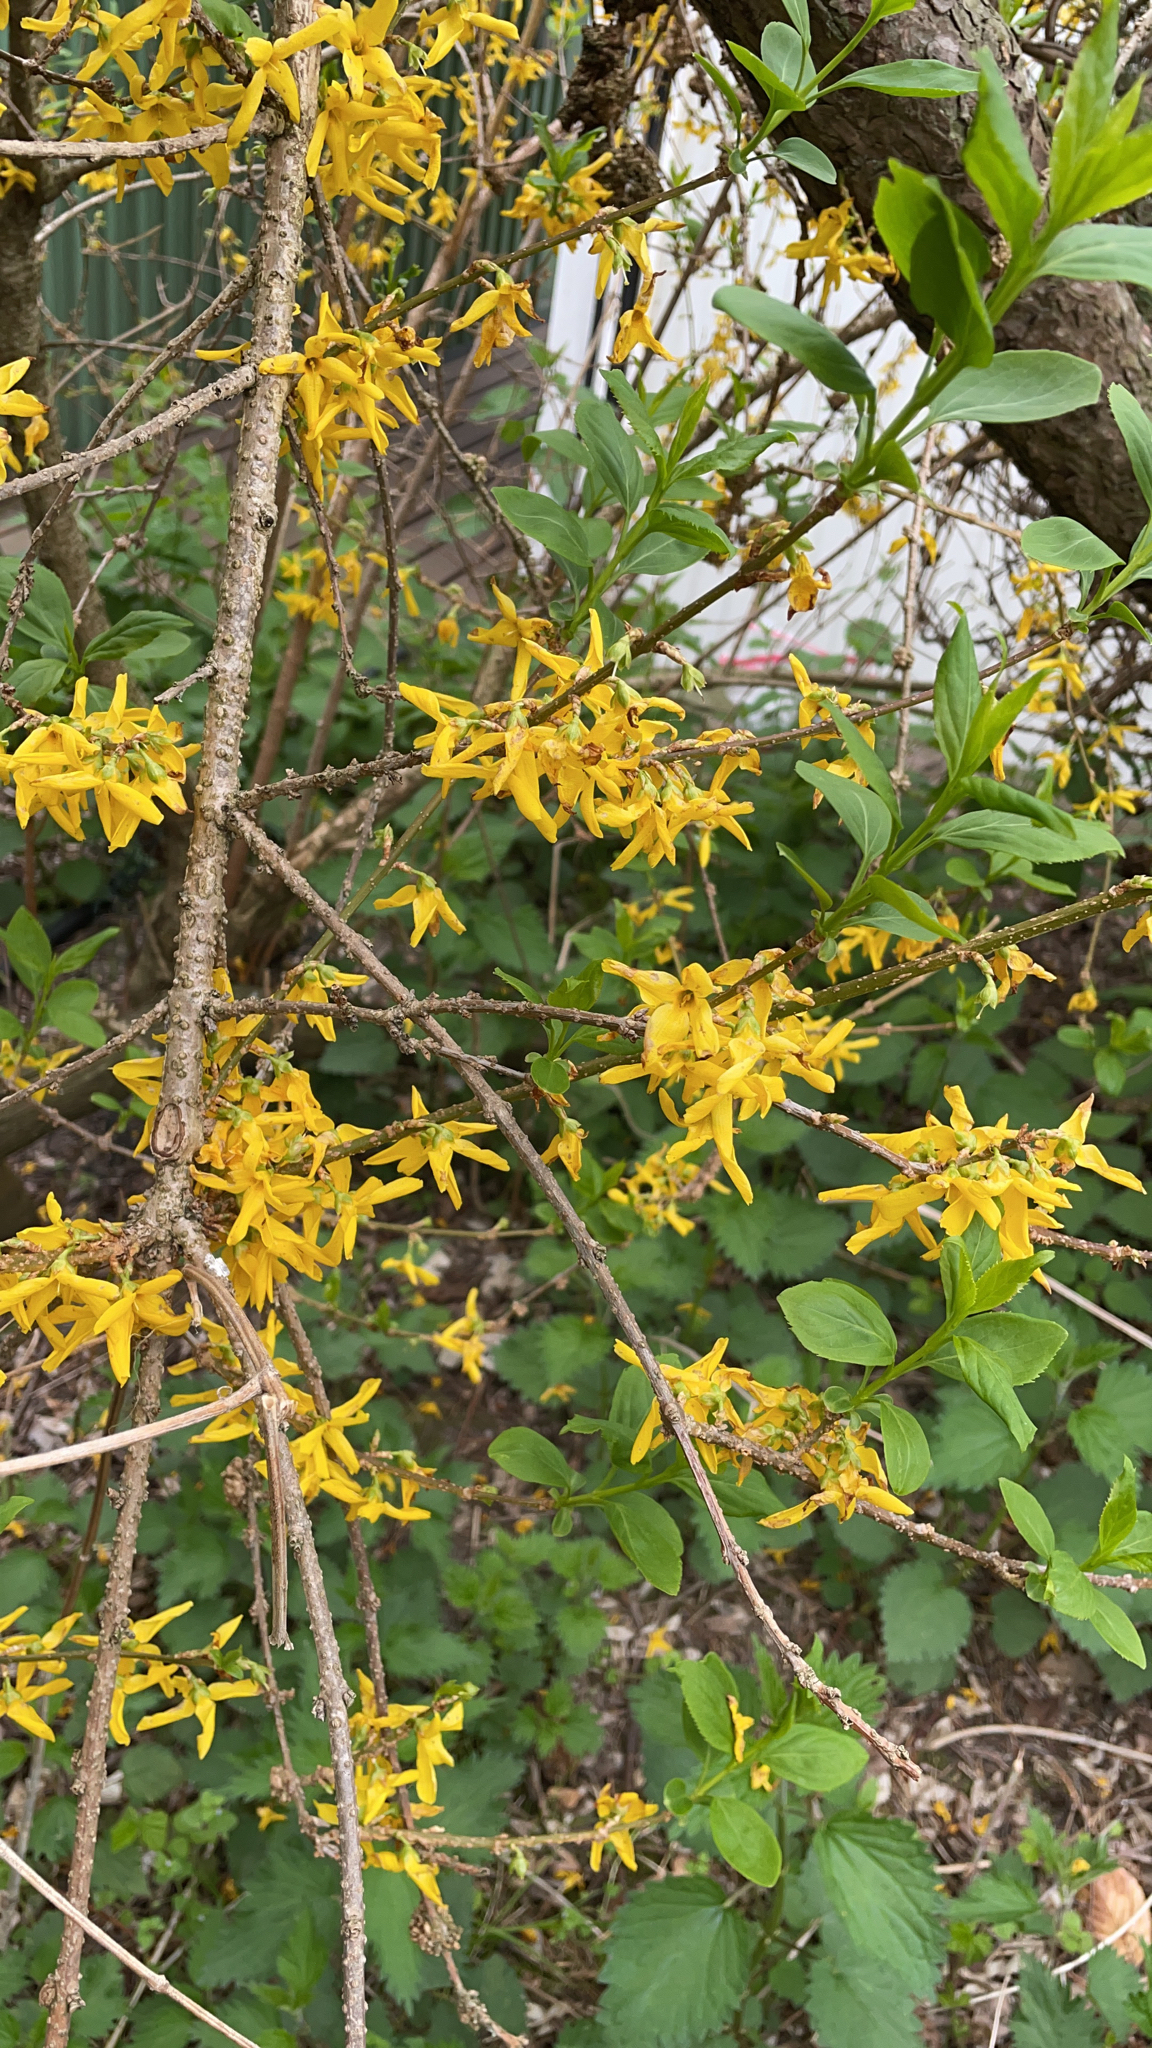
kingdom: Plantae
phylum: Tracheophyta
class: Magnoliopsida
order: Lamiales
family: Oleaceae
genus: Forsythia
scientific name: Forsythia intermedia
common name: Forsythia
